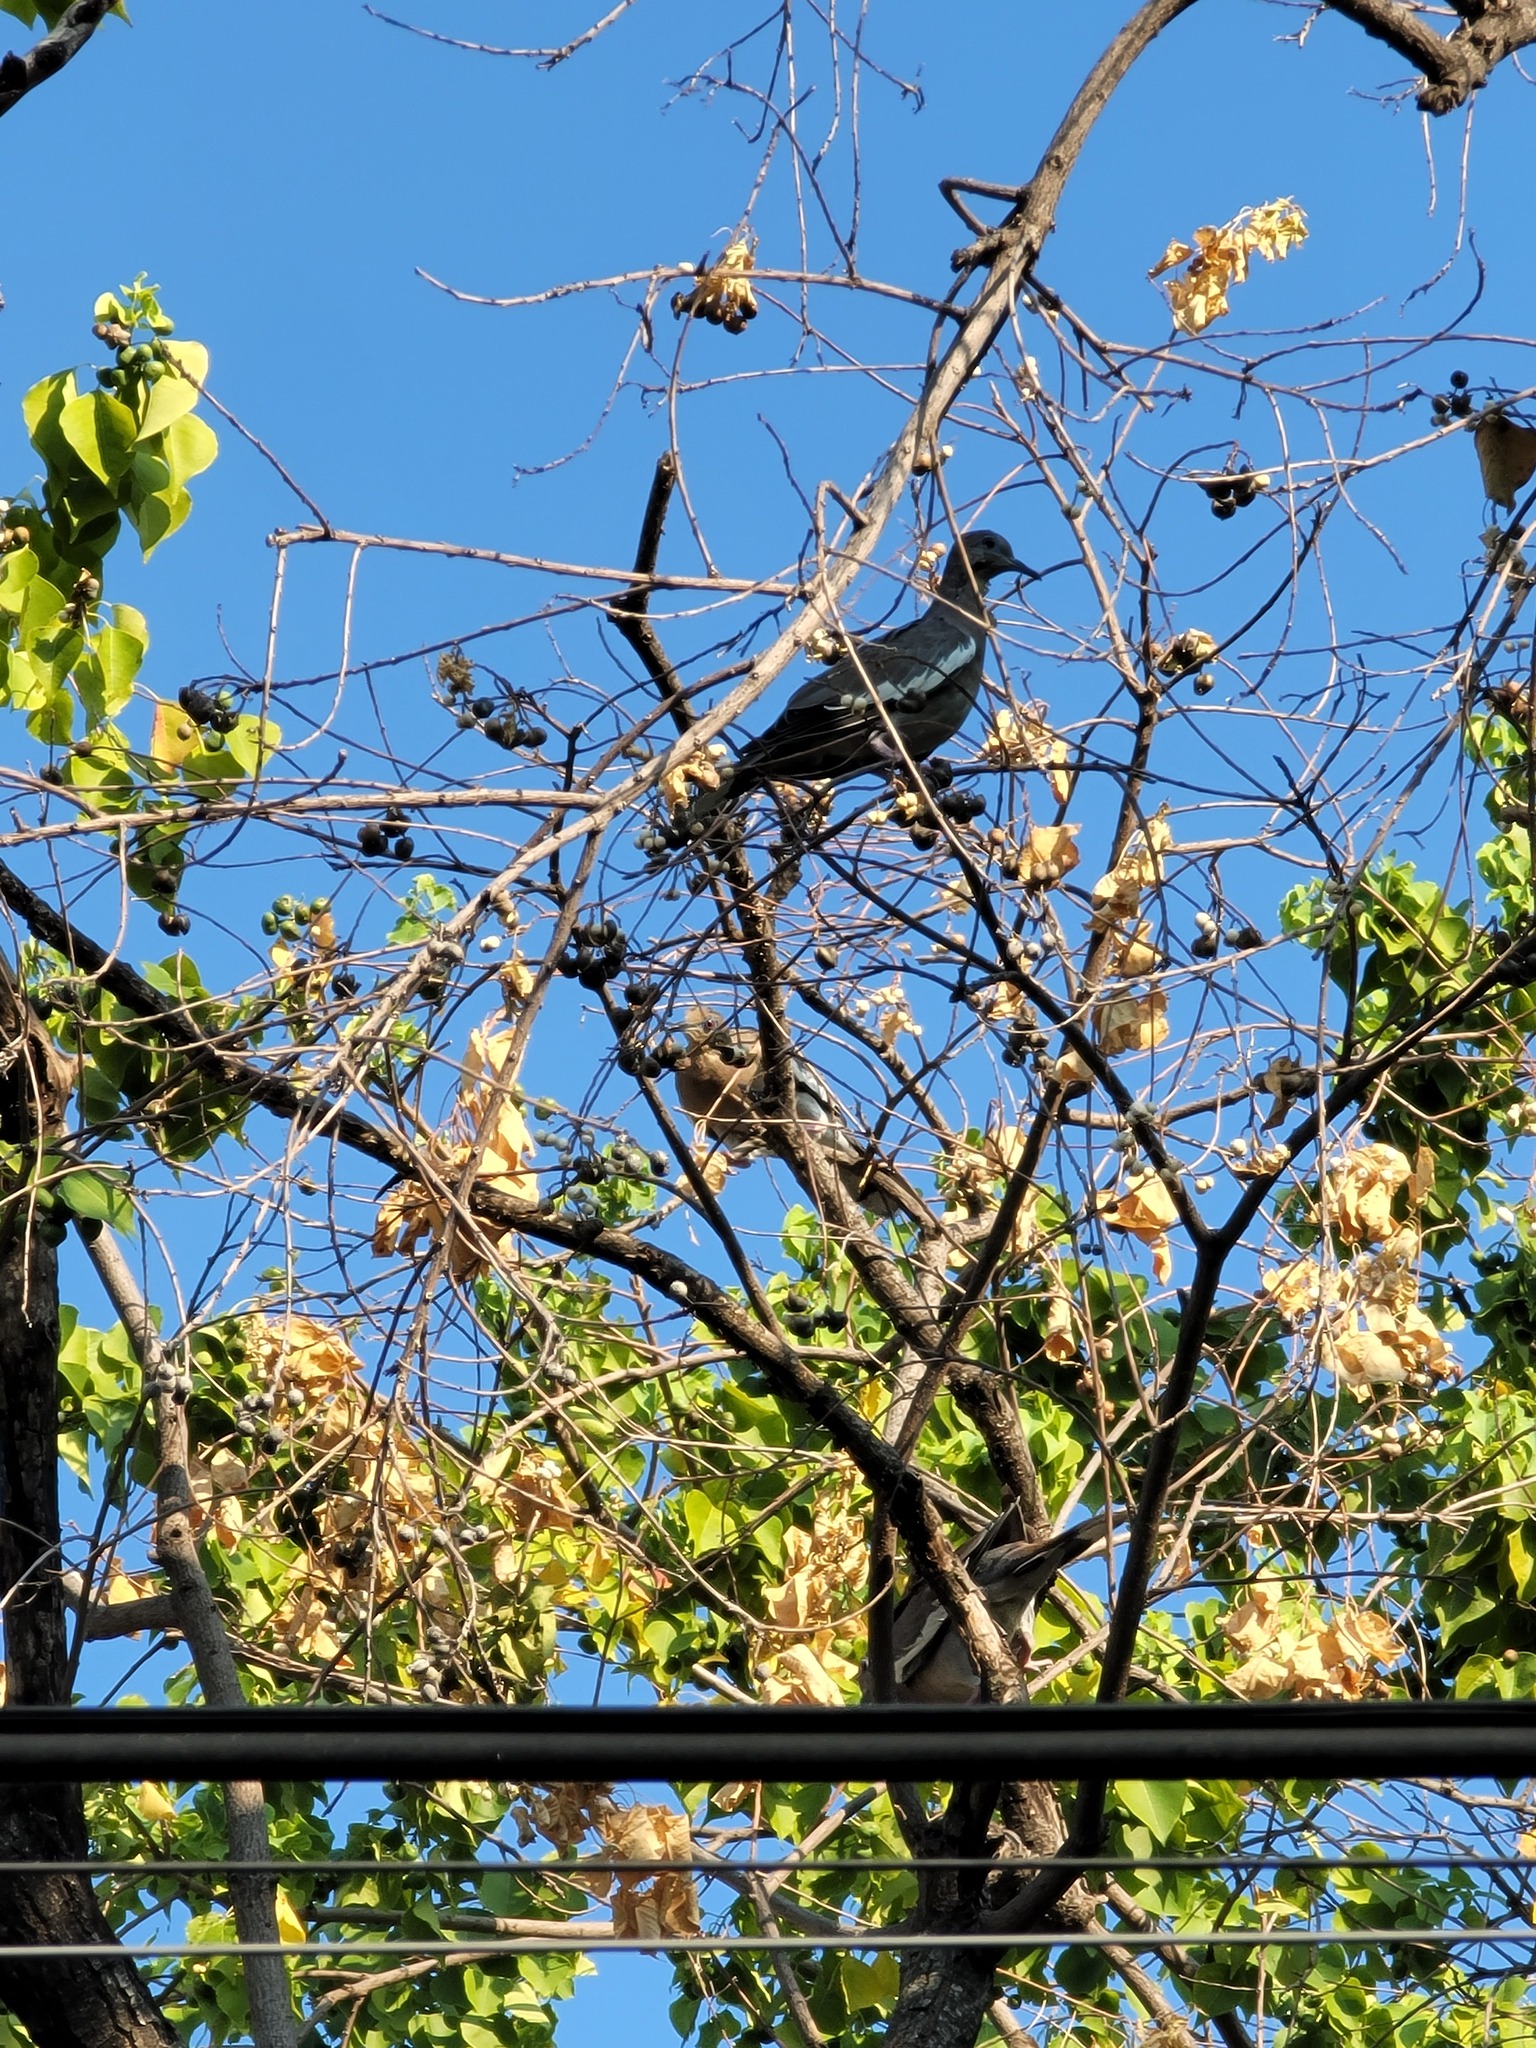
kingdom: Animalia
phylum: Chordata
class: Aves
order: Columbiformes
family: Columbidae
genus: Zenaida
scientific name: Zenaida asiatica
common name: White-winged dove
